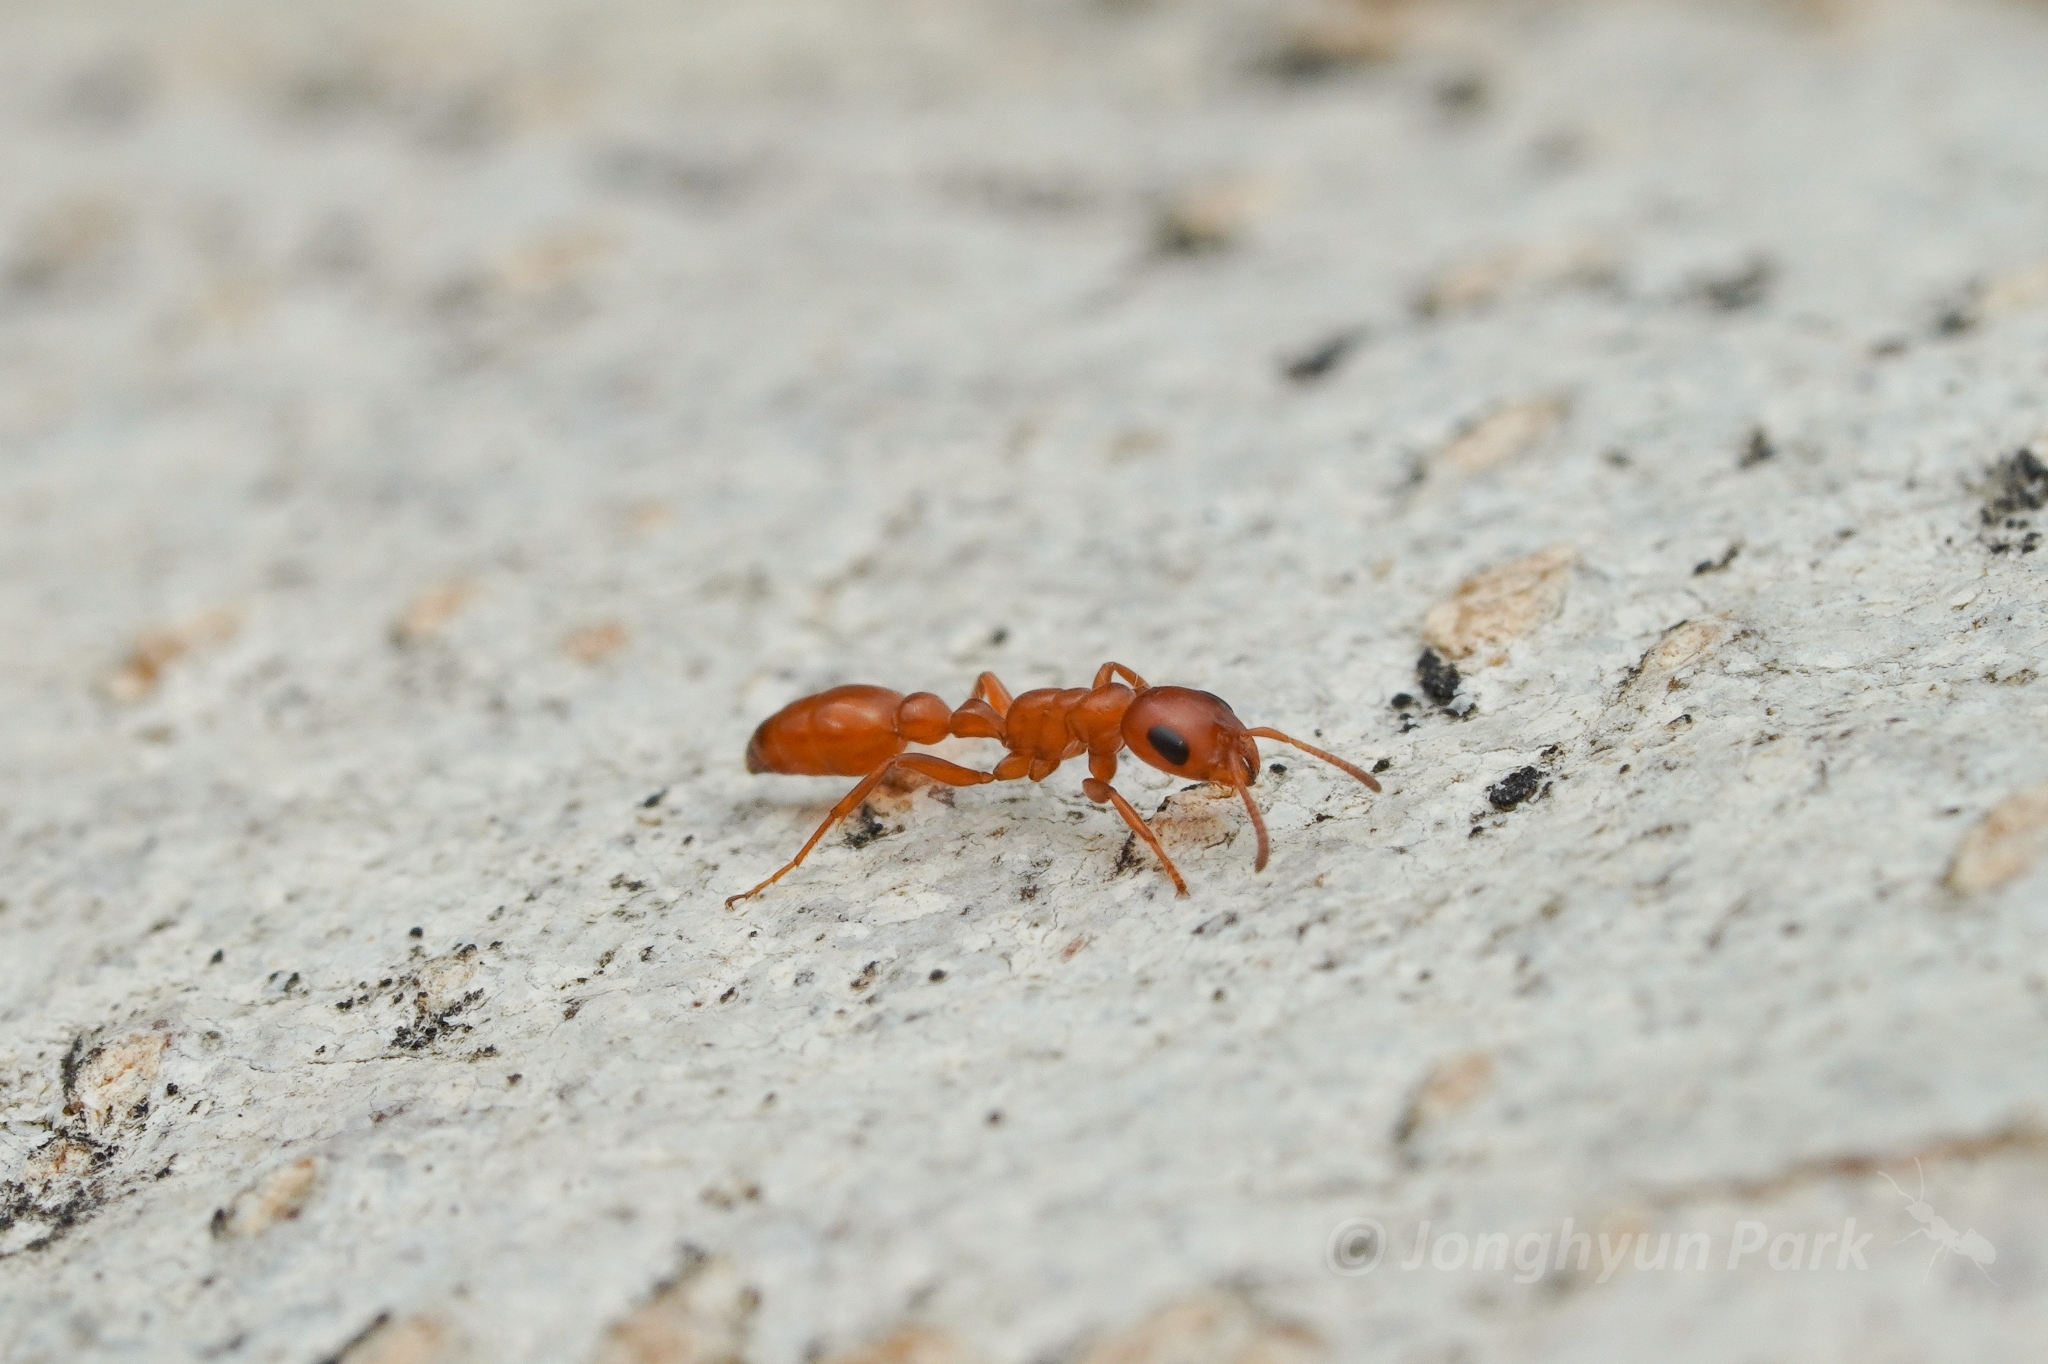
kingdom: Animalia
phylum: Arthropoda
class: Insecta
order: Hymenoptera
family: Formicidae
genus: Pseudomyrmex
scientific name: Pseudomyrmex apache
